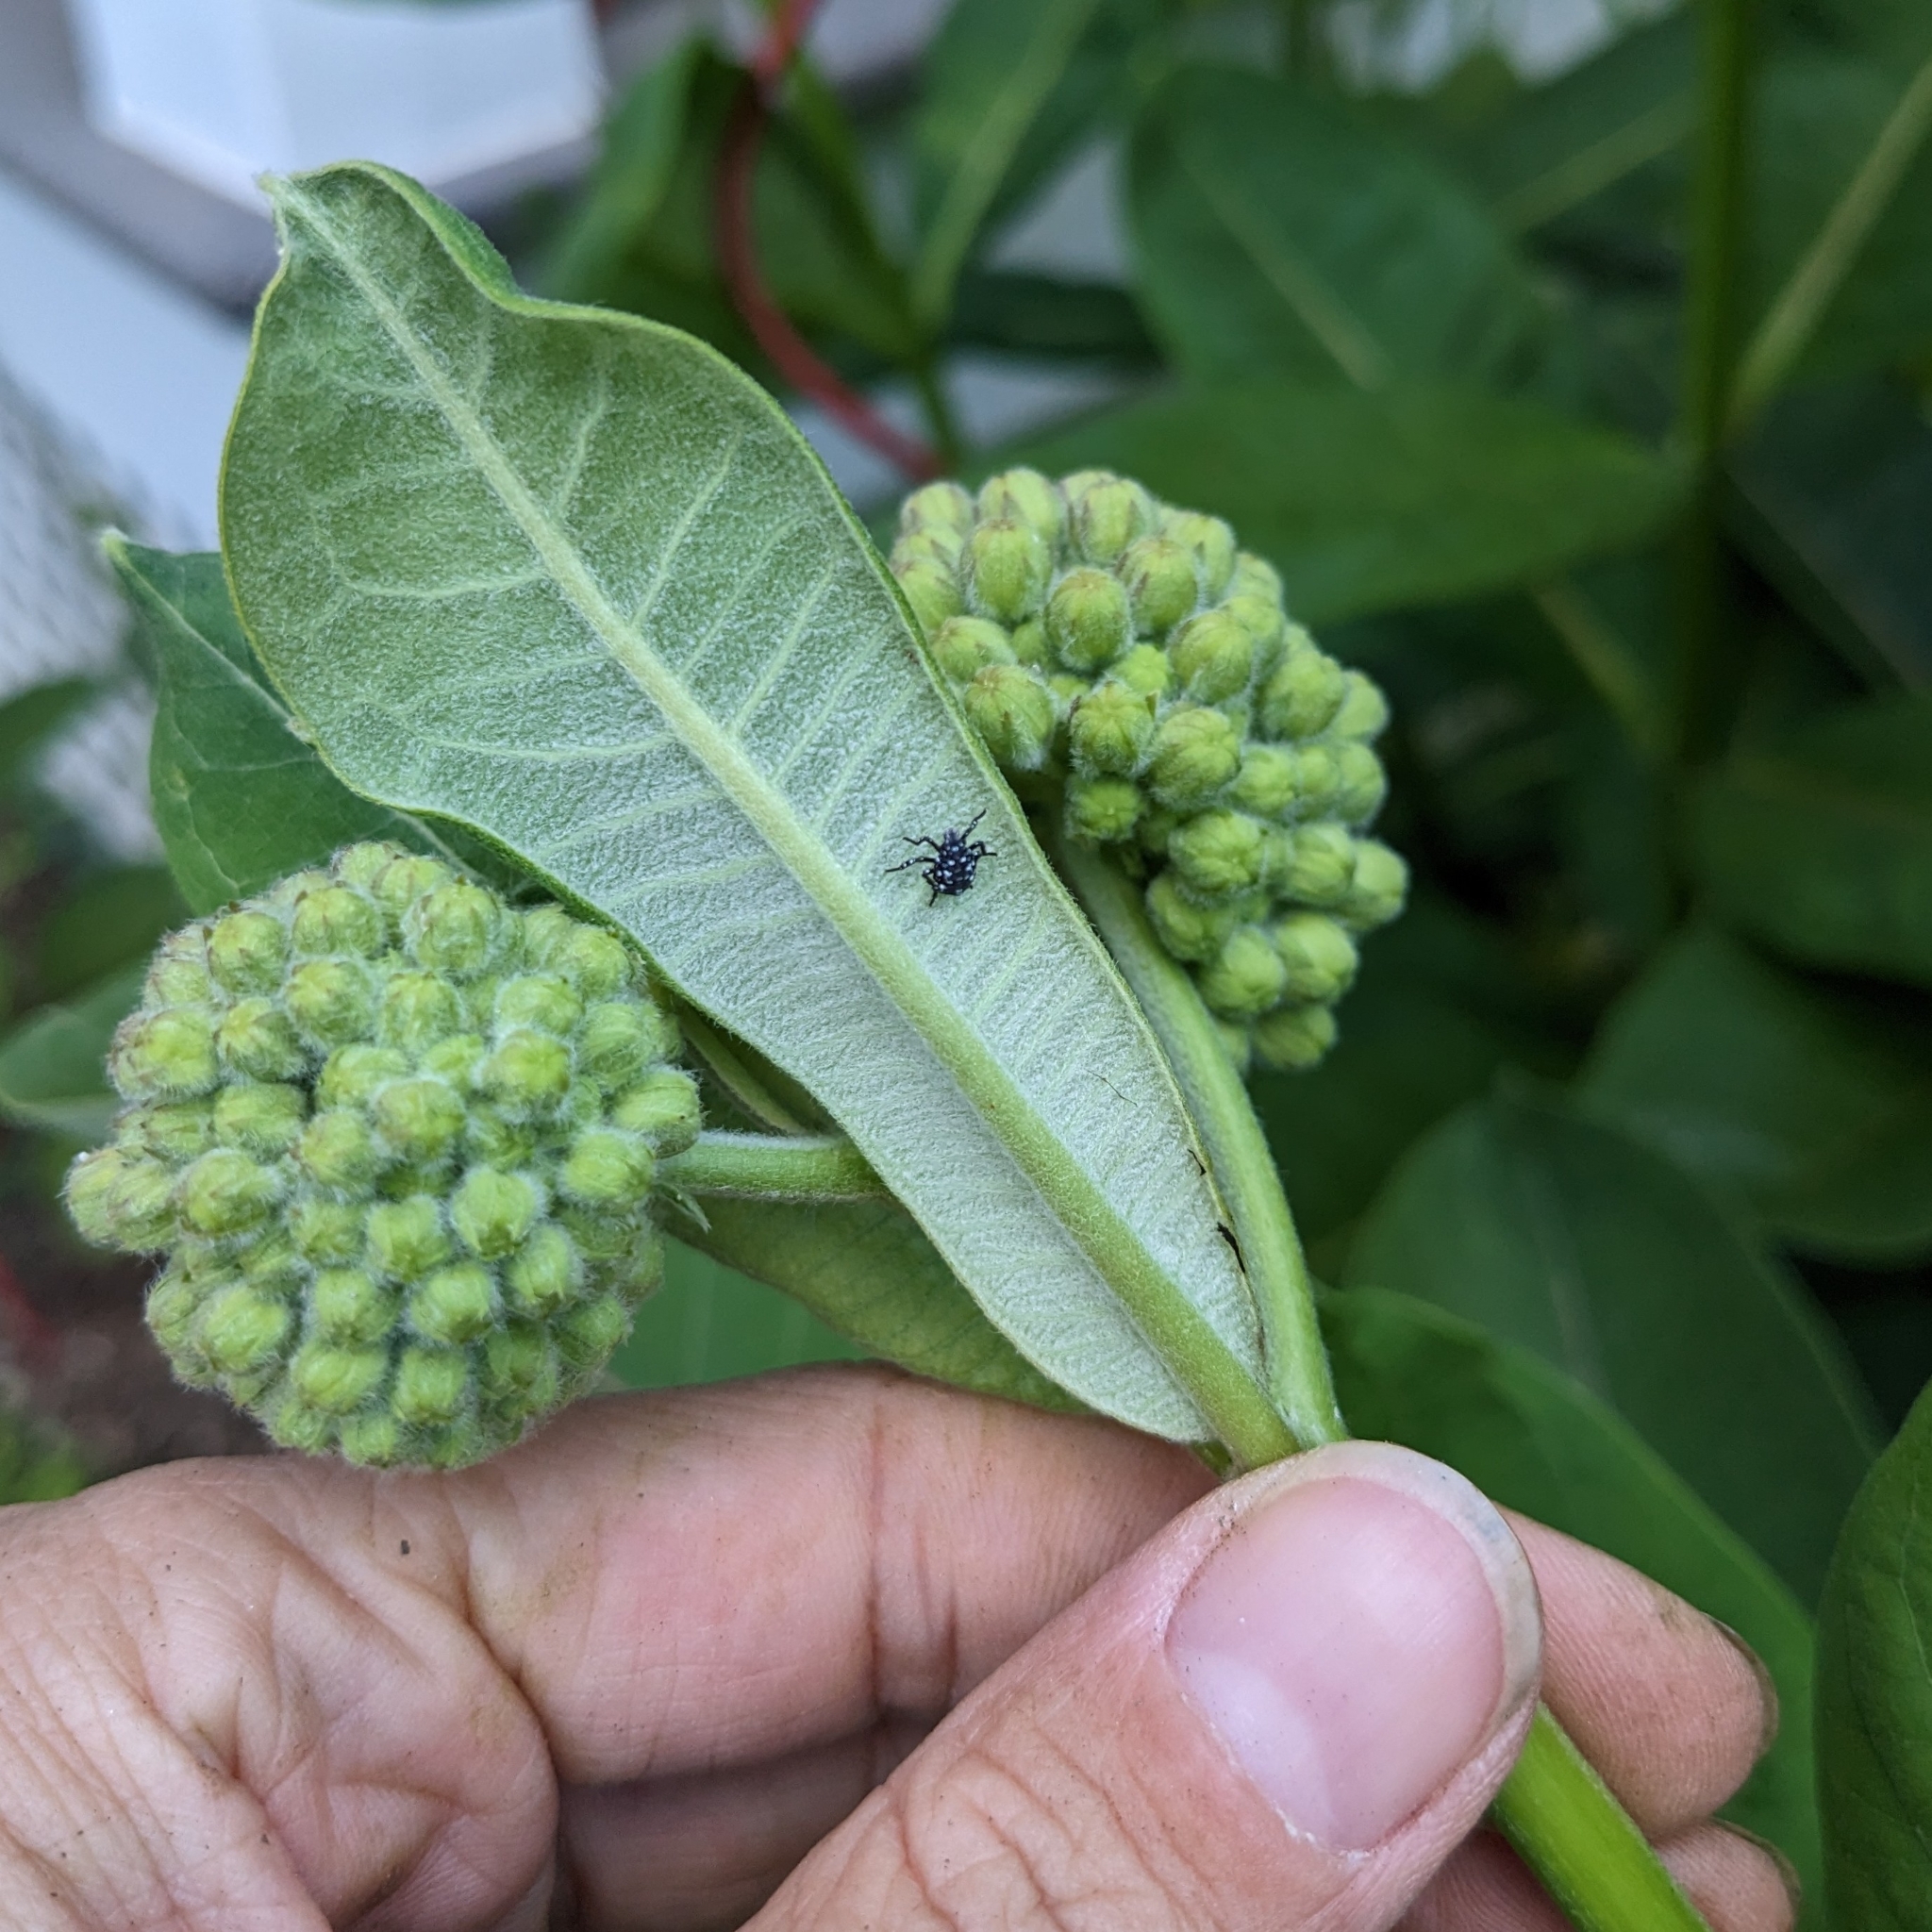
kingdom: Animalia
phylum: Arthropoda
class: Insecta
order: Hemiptera
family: Fulgoridae
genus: Lycorma
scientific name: Lycorma delicatula
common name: Spotted lanternfly
